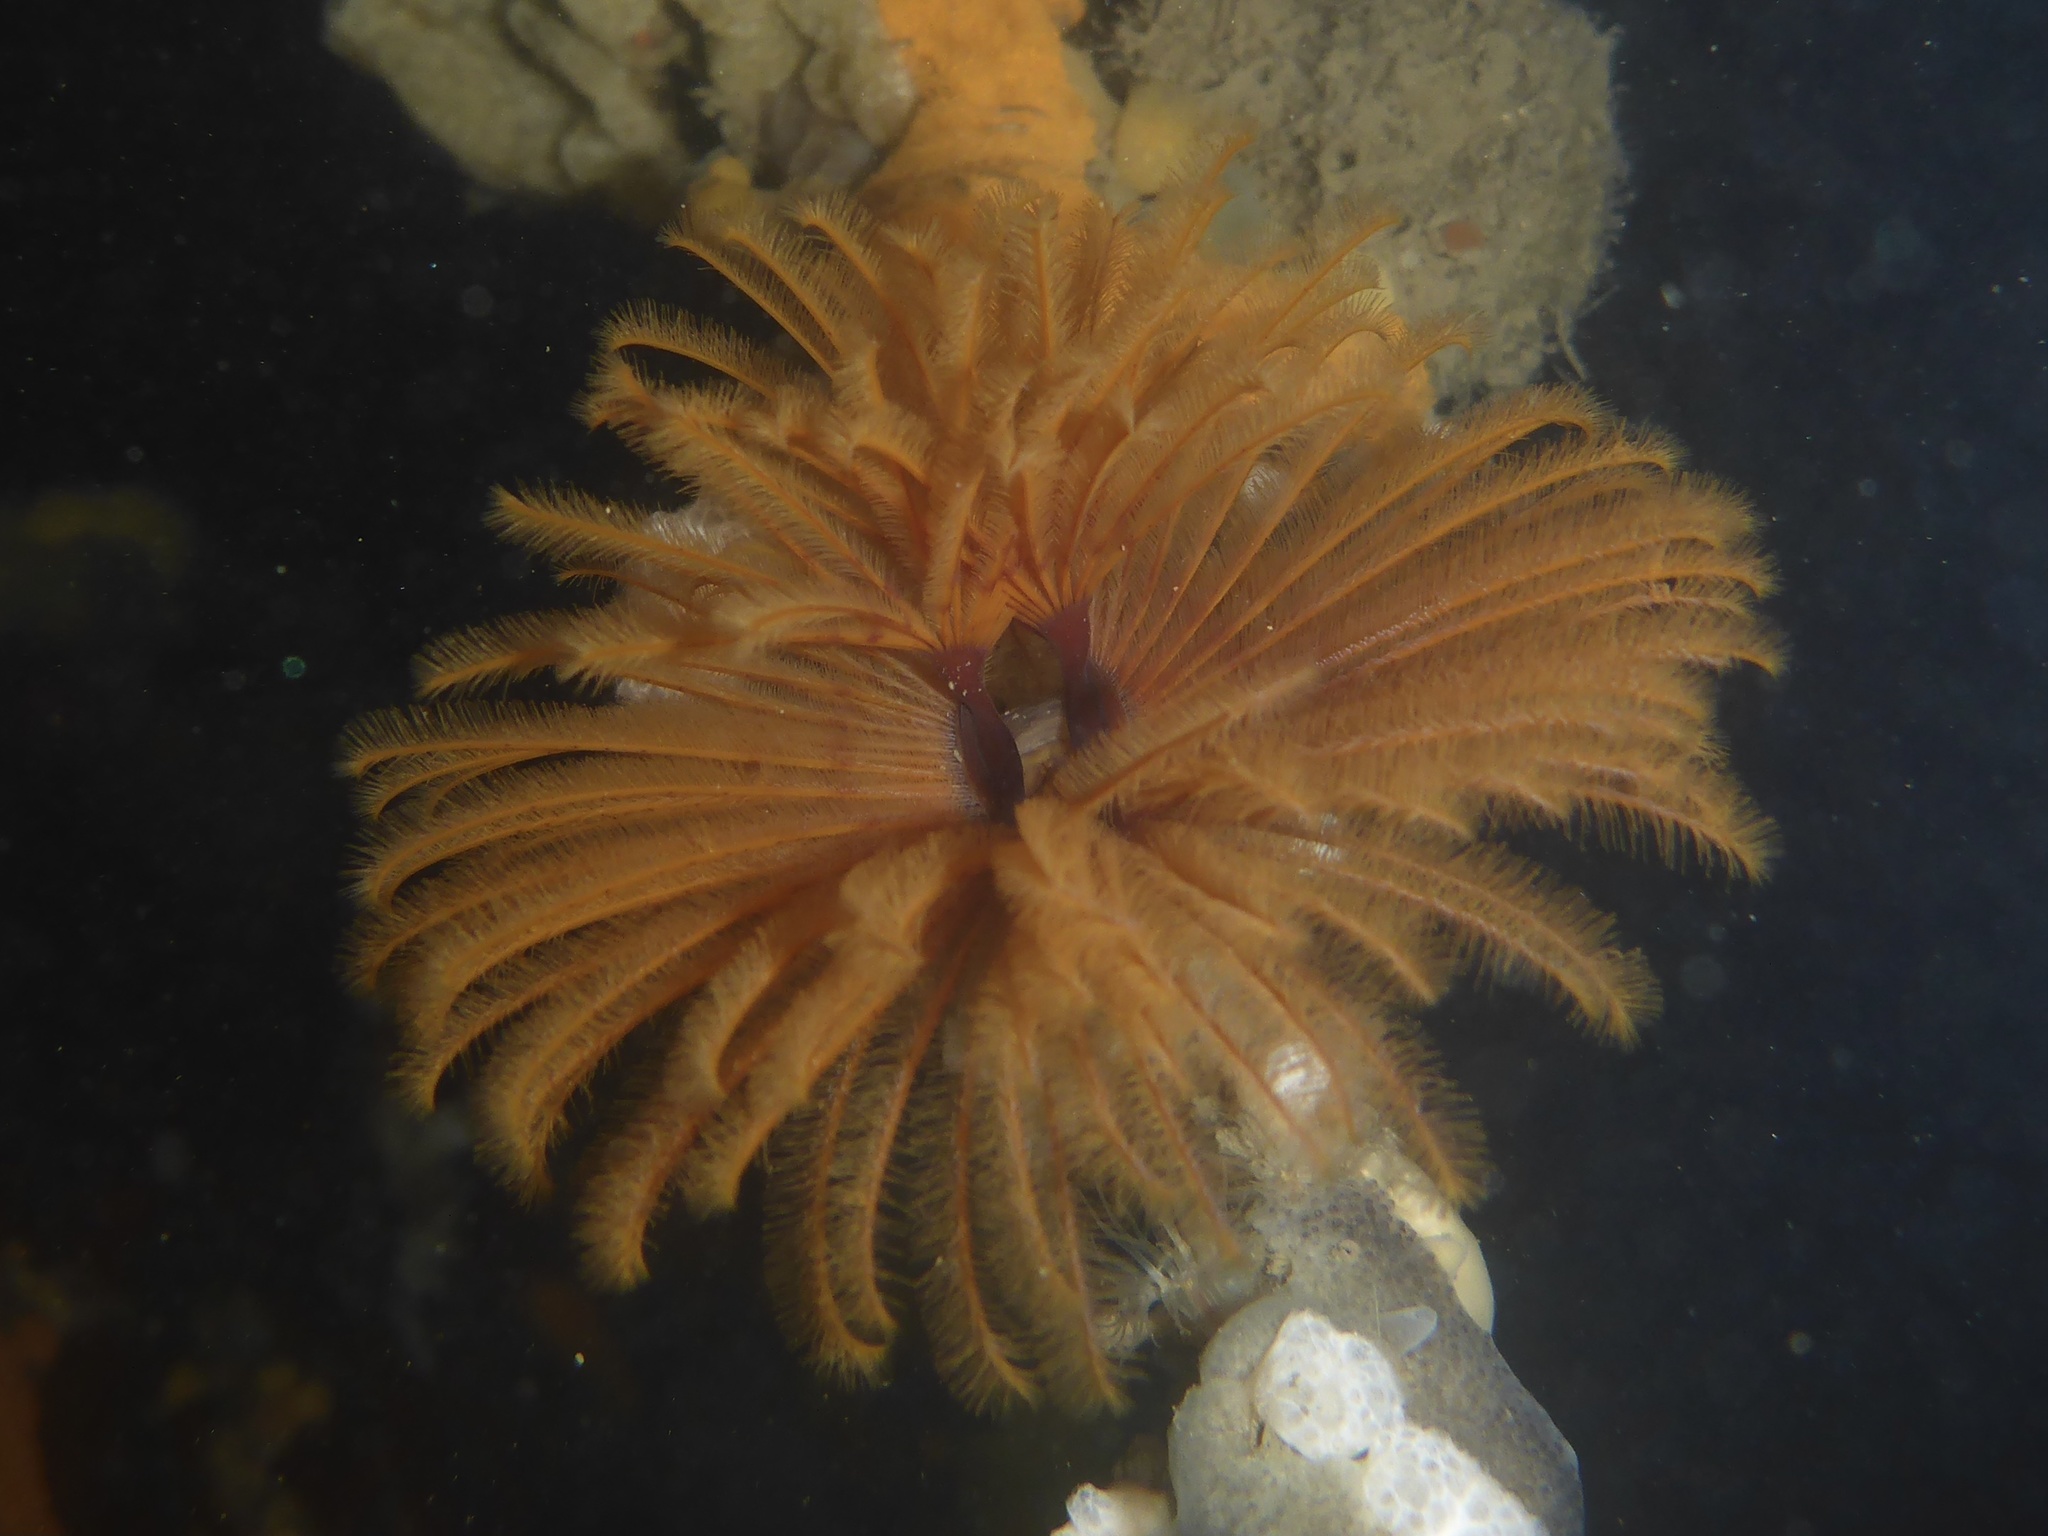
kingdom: Animalia
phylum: Annelida
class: Polychaeta
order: Sabellida
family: Sabellidae
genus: Eudistylia
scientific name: Eudistylia polymorpha
